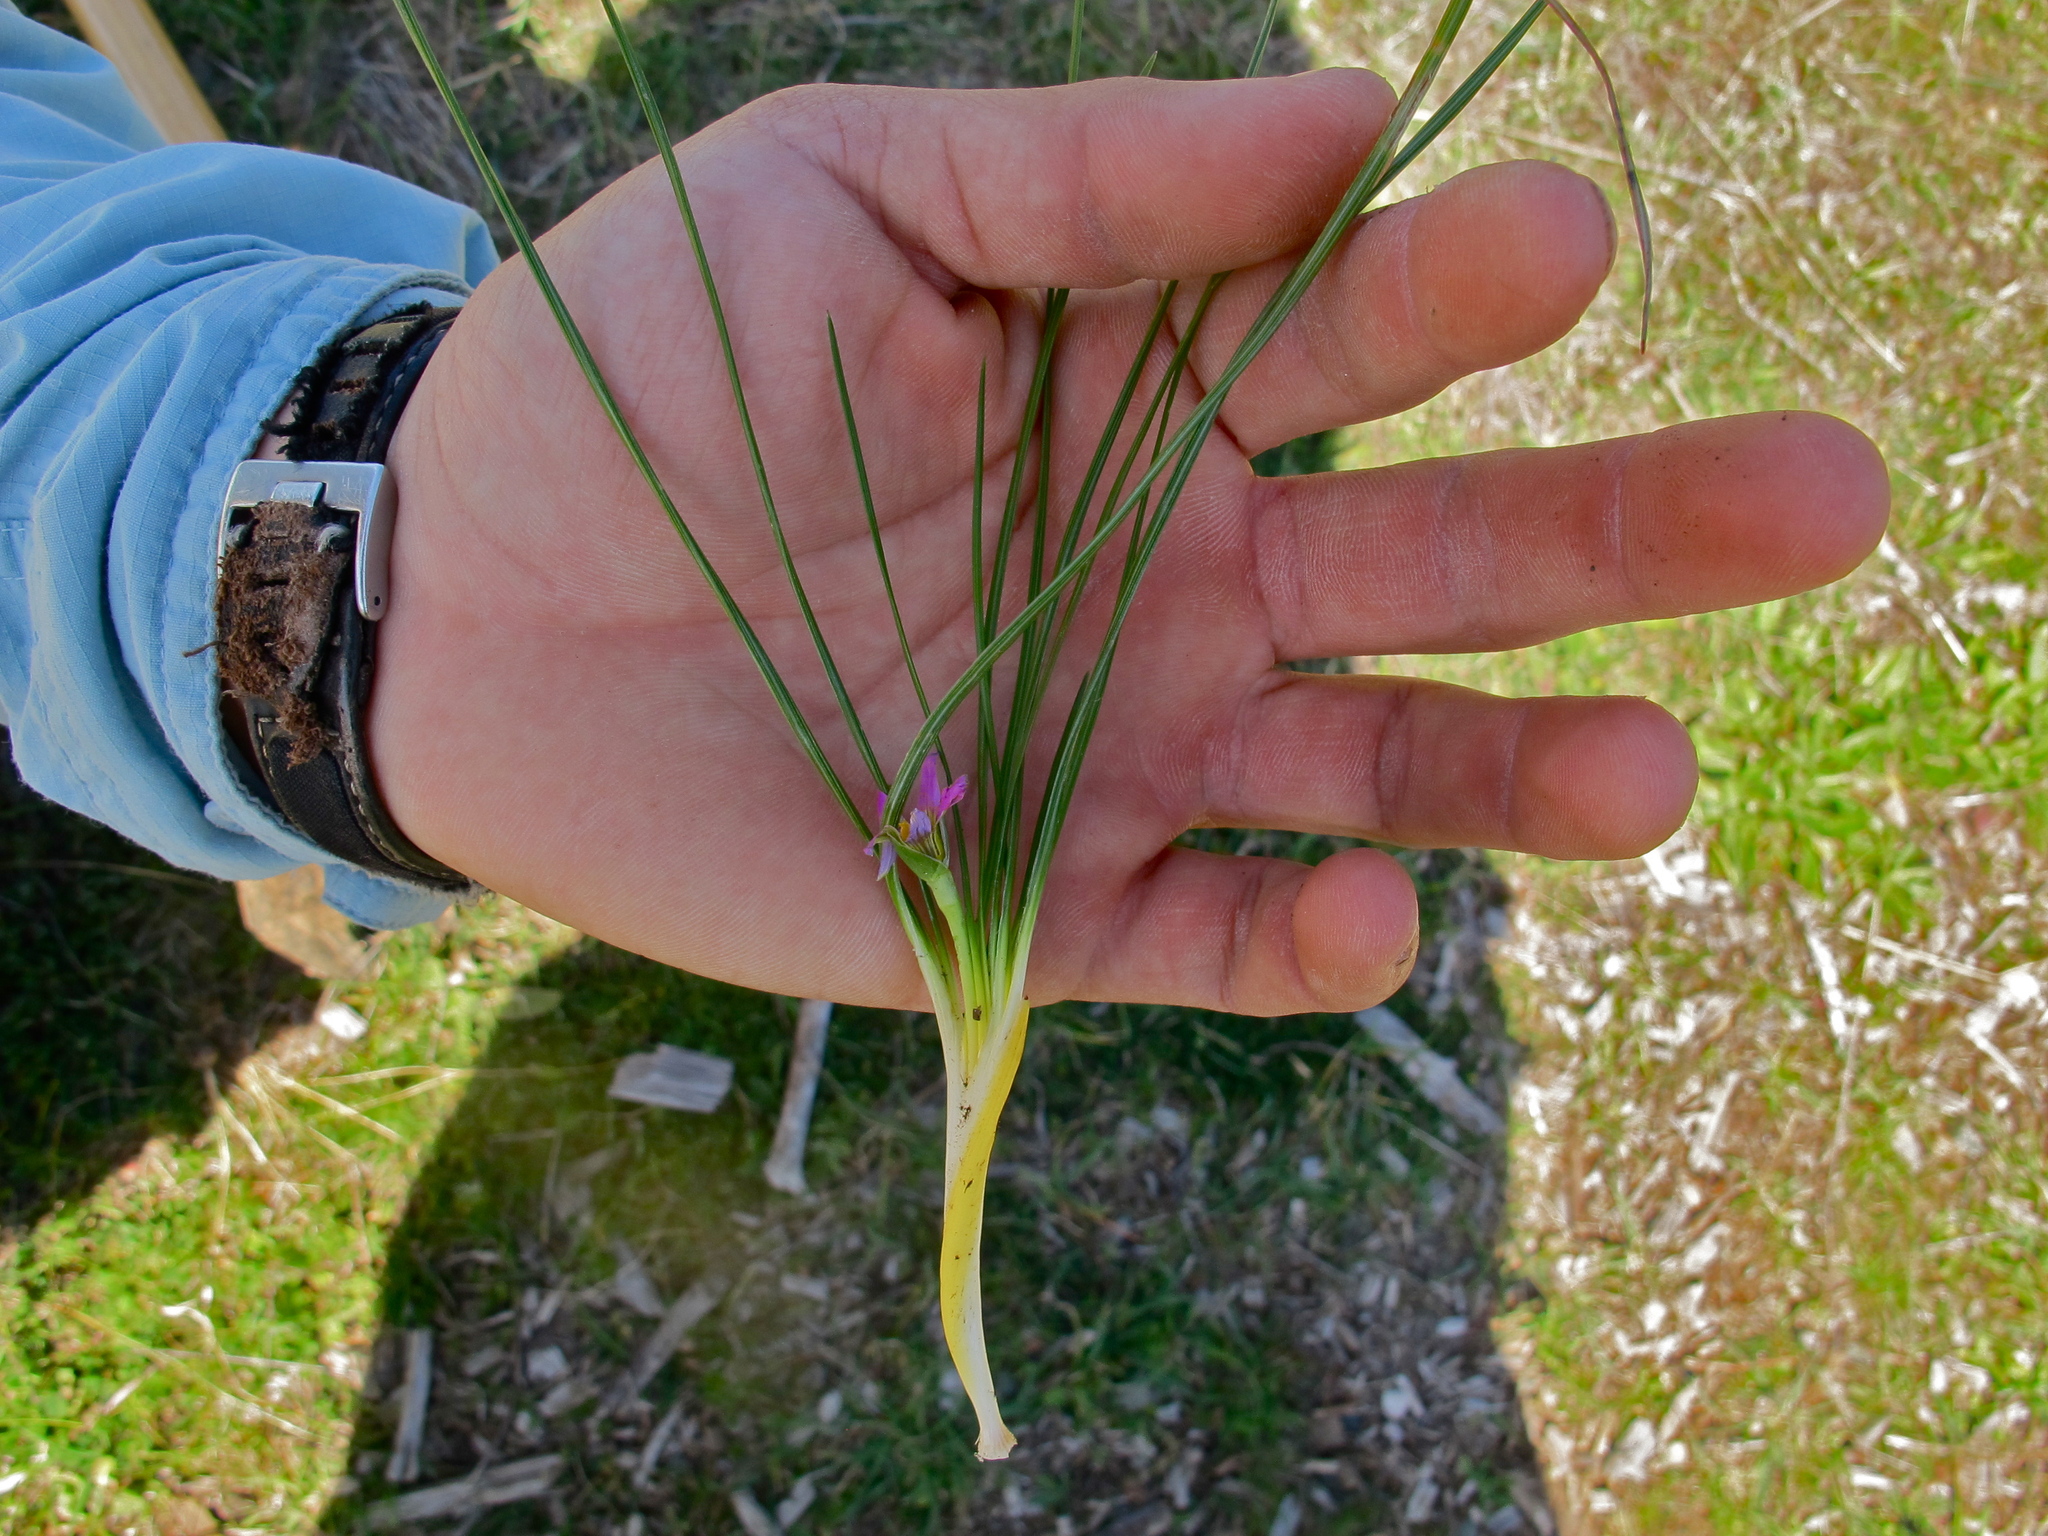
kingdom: Plantae
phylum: Tracheophyta
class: Liliopsida
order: Asparagales
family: Iridaceae
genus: Romulea
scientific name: Romulea rosea
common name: Oniongrass
